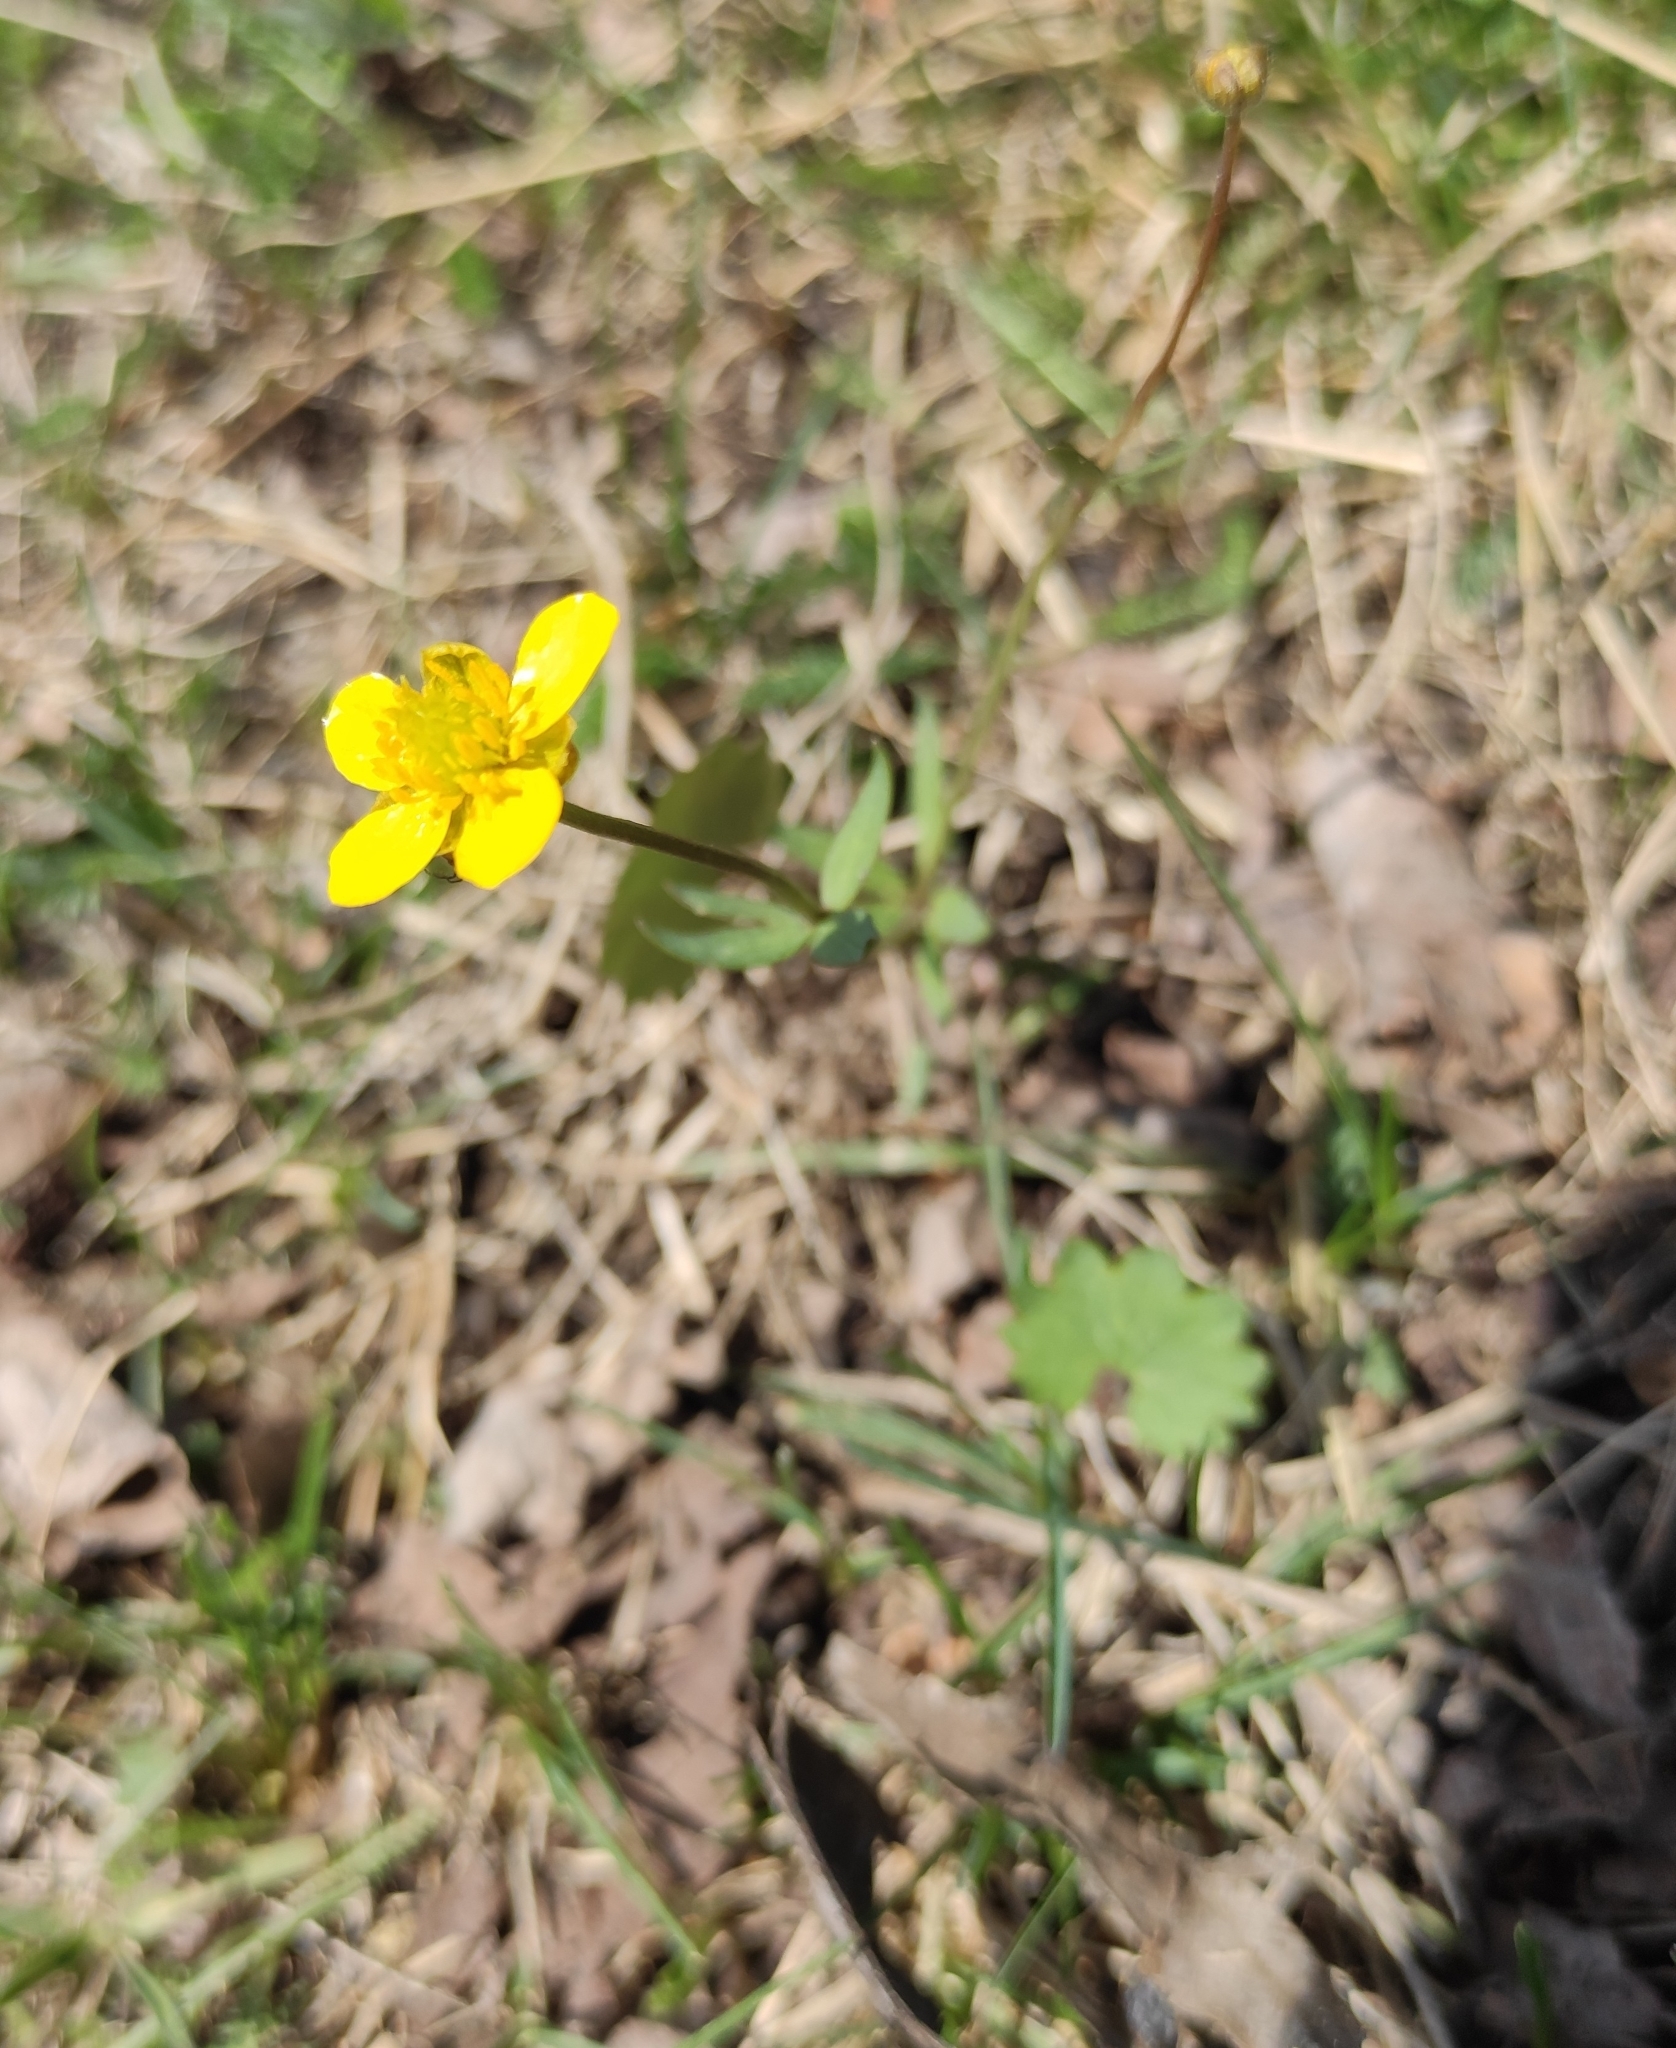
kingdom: Plantae
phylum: Tracheophyta
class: Magnoliopsida
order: Ranunculales
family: Ranunculaceae
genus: Ranunculus
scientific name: Ranunculus monophyllus
